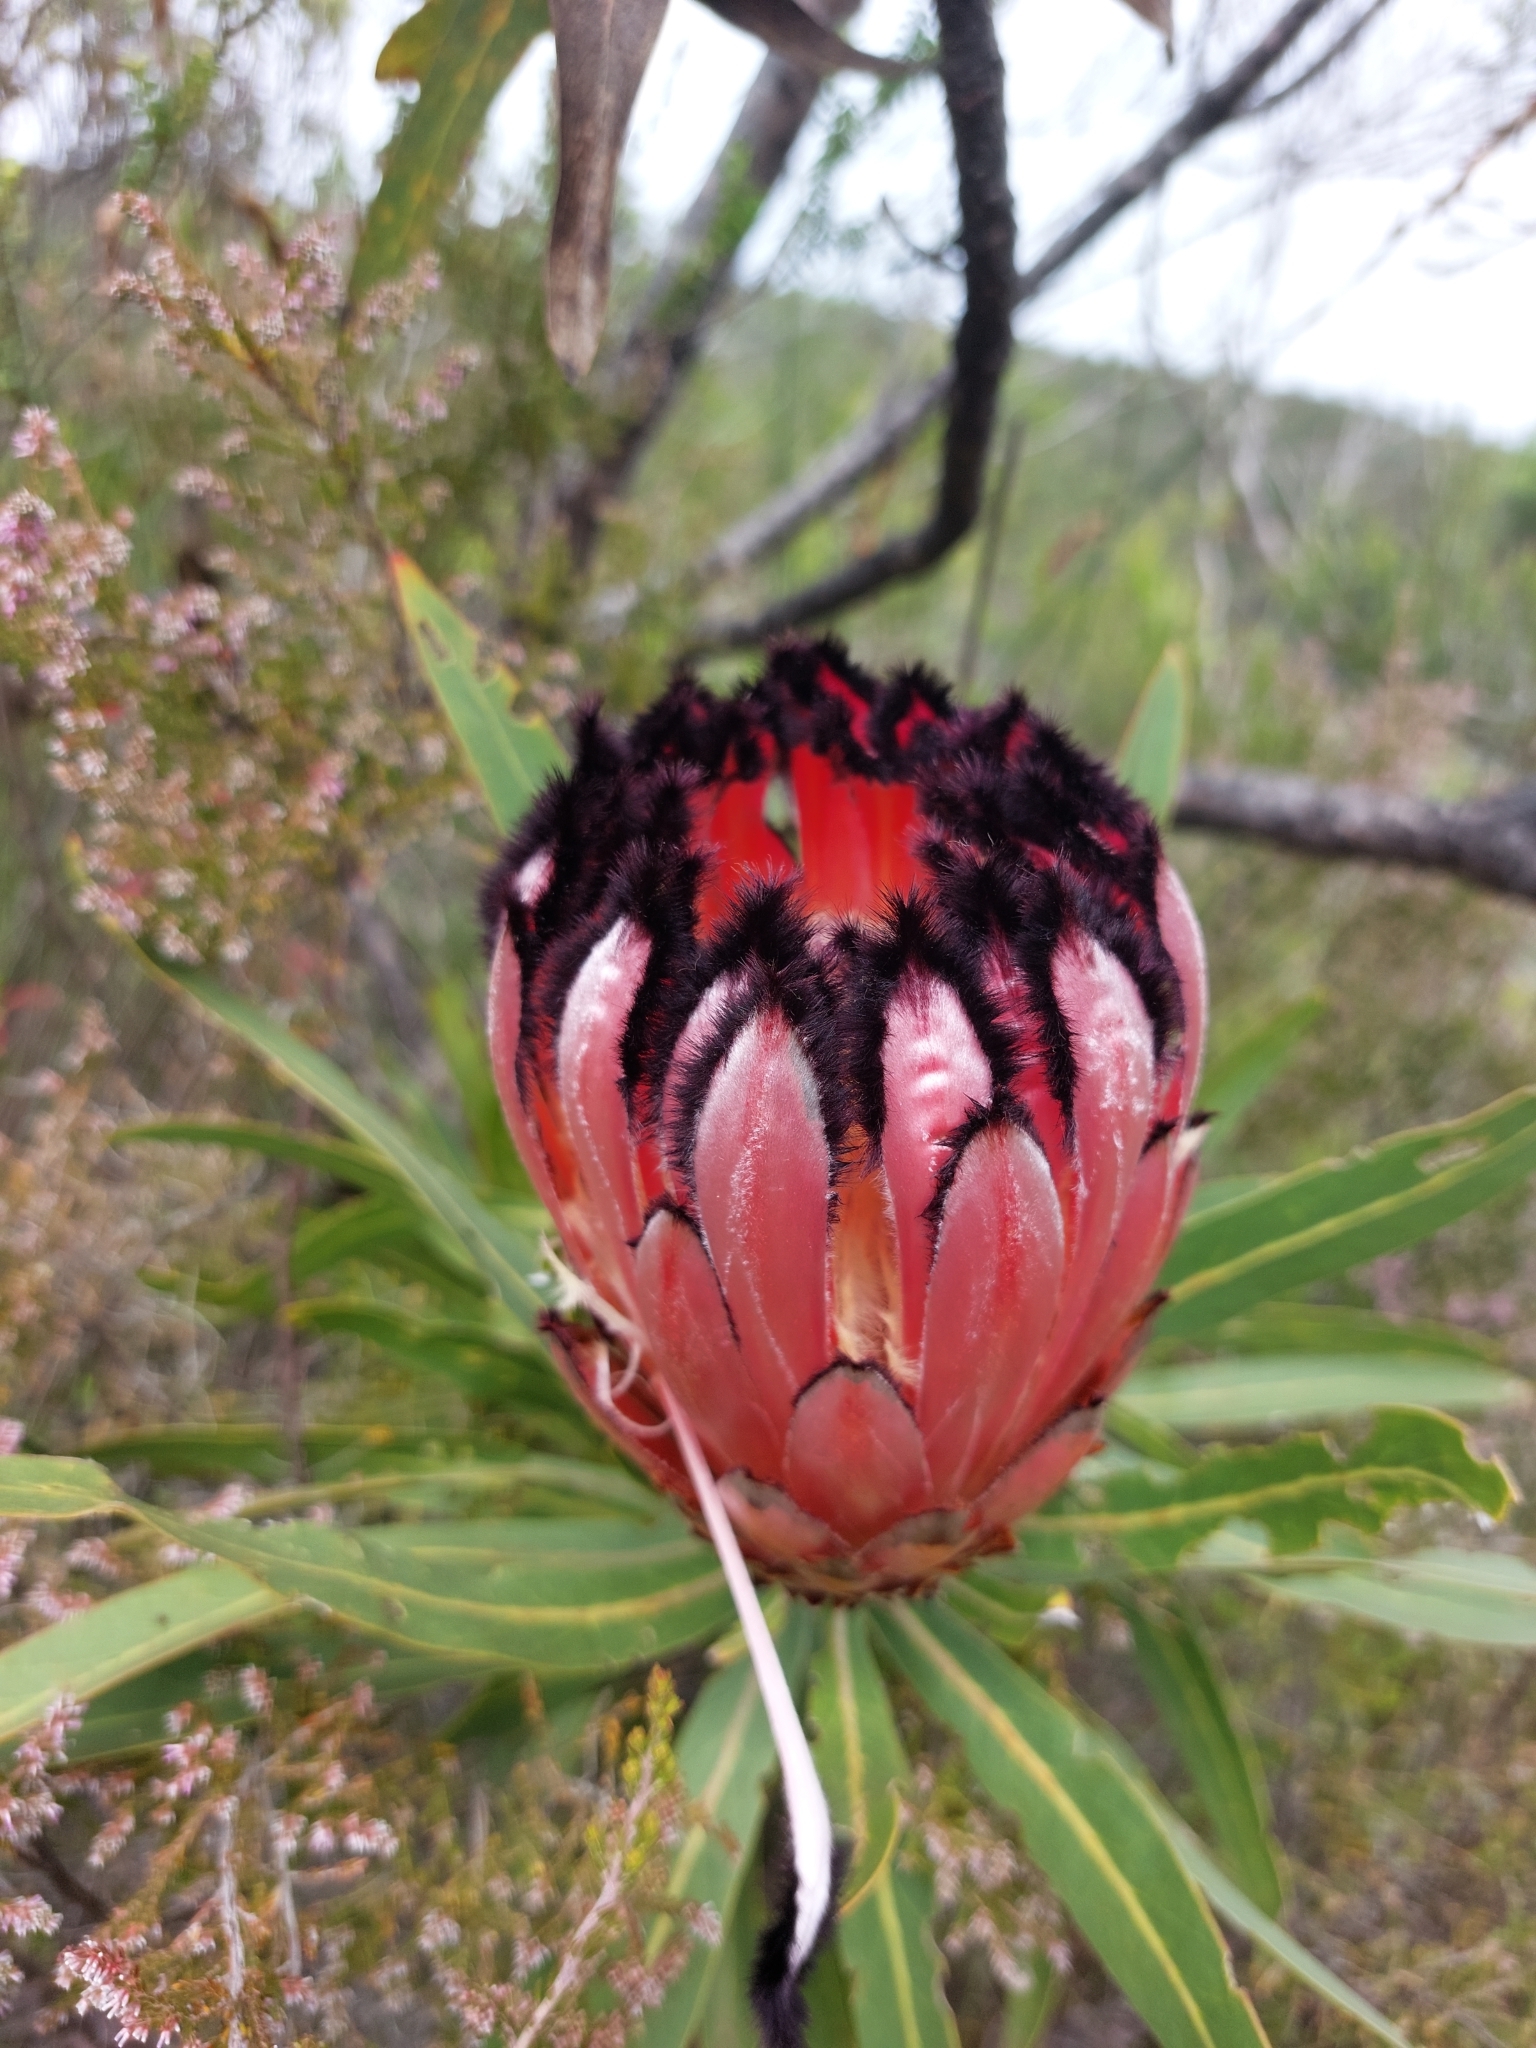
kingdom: Plantae
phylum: Tracheophyta
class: Magnoliopsida
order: Proteales
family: Proteaceae
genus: Protea
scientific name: Protea neriifolia
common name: Blue sugarbush
